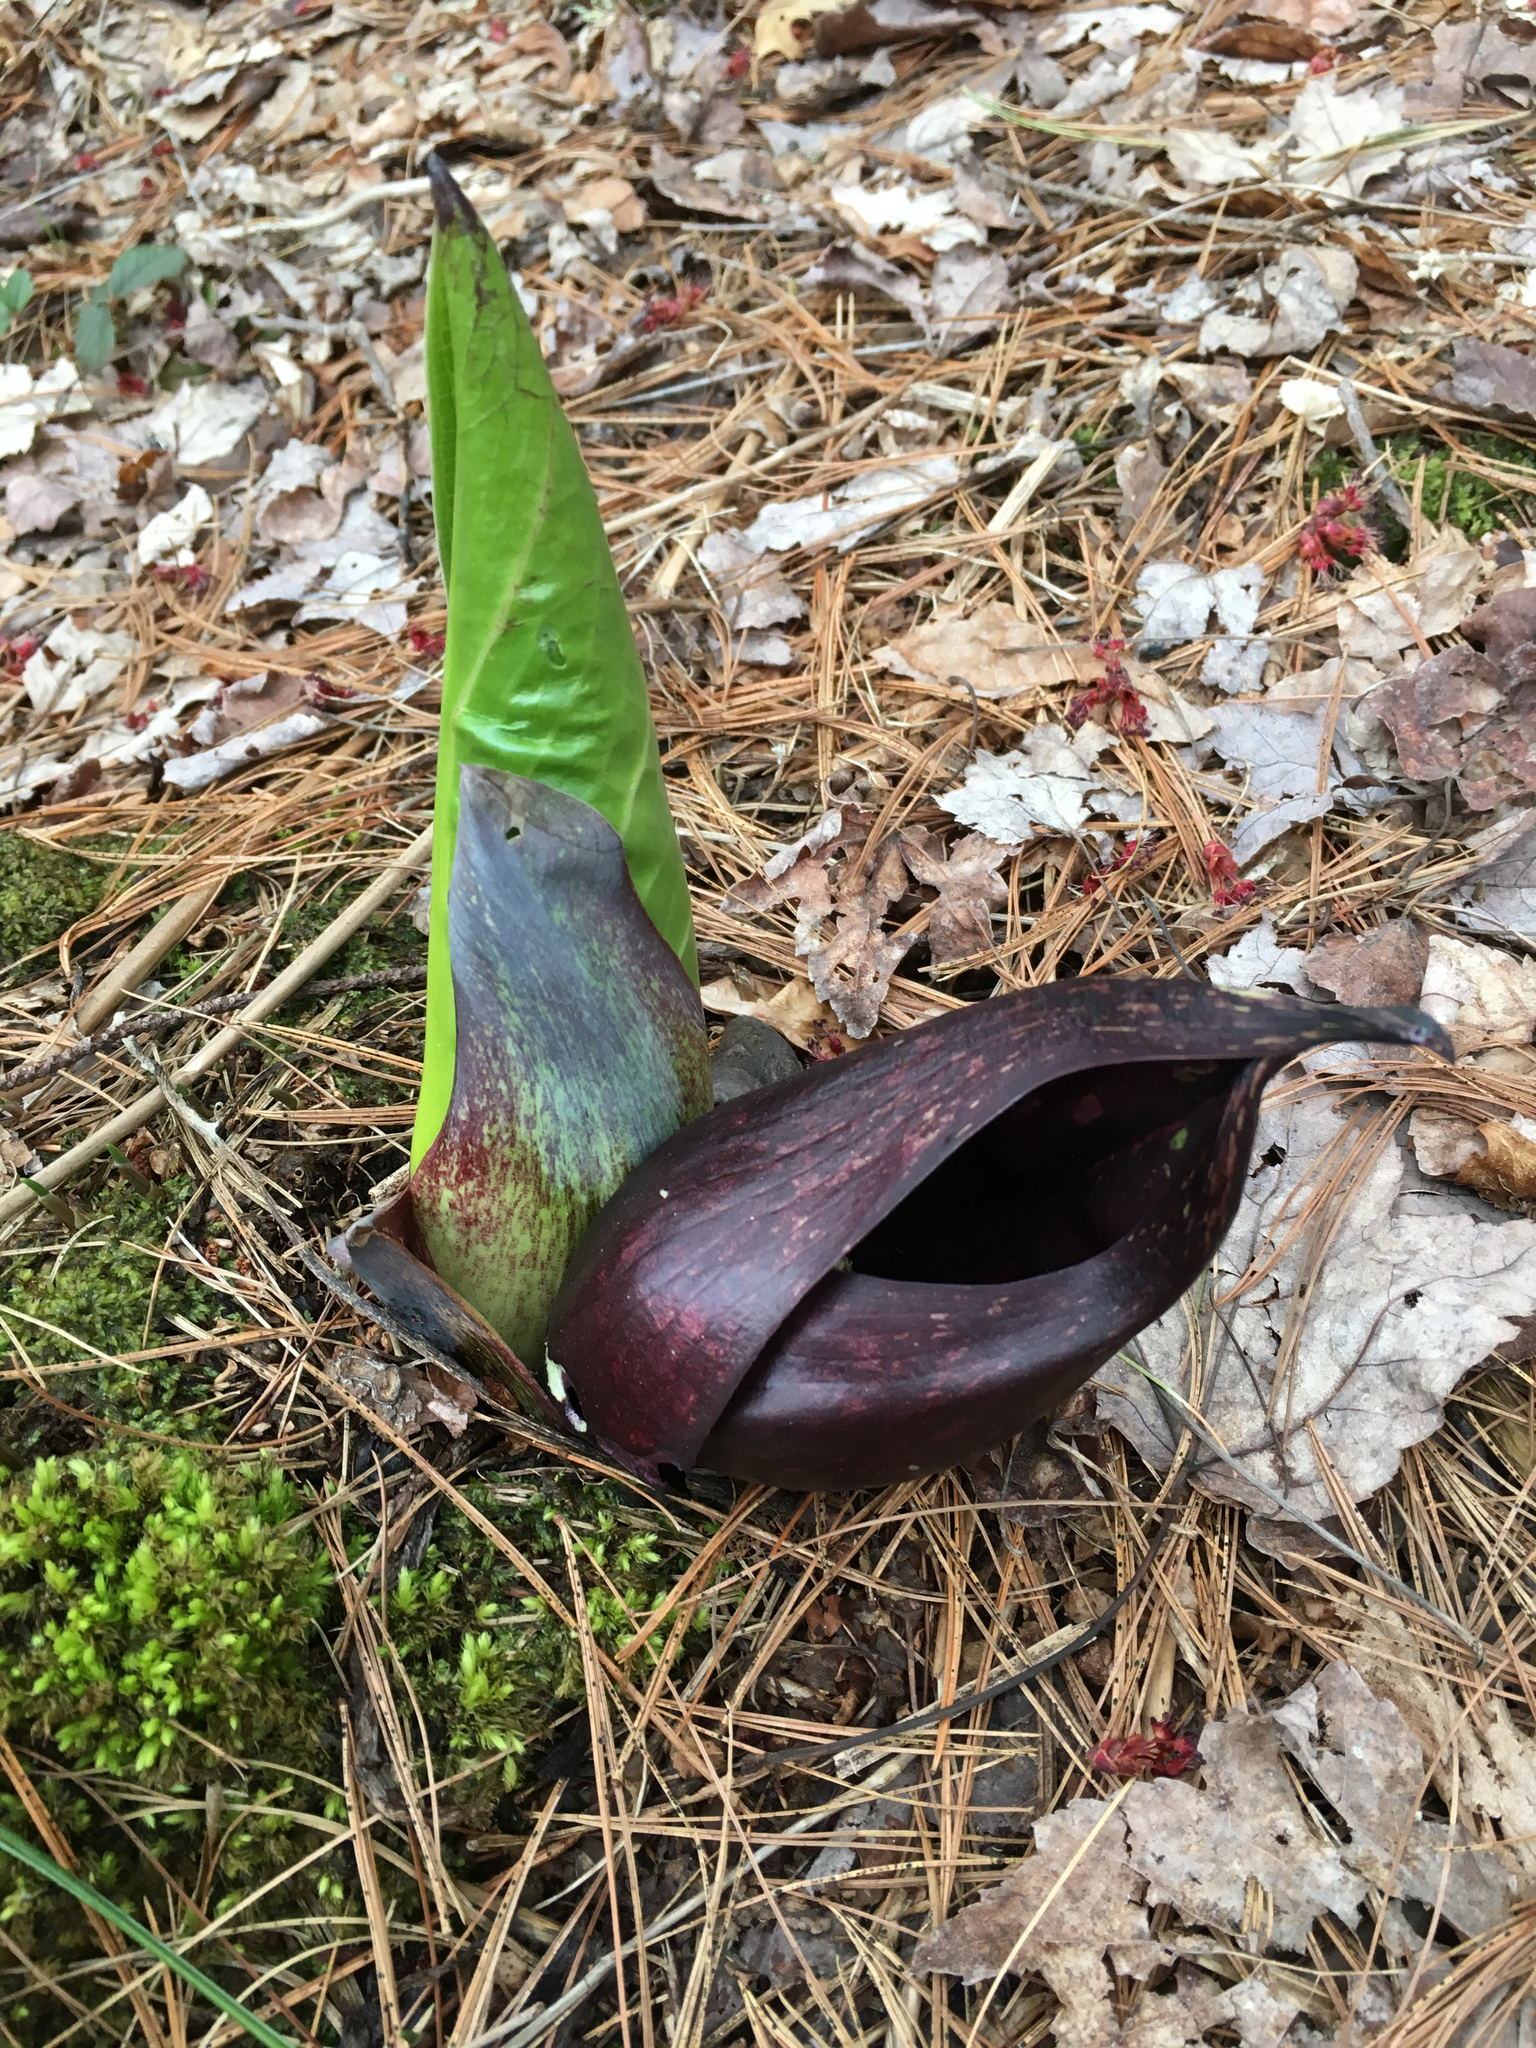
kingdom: Plantae
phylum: Tracheophyta
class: Liliopsida
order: Alismatales
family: Araceae
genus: Symplocarpus
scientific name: Symplocarpus foetidus
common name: Eastern skunk cabbage
